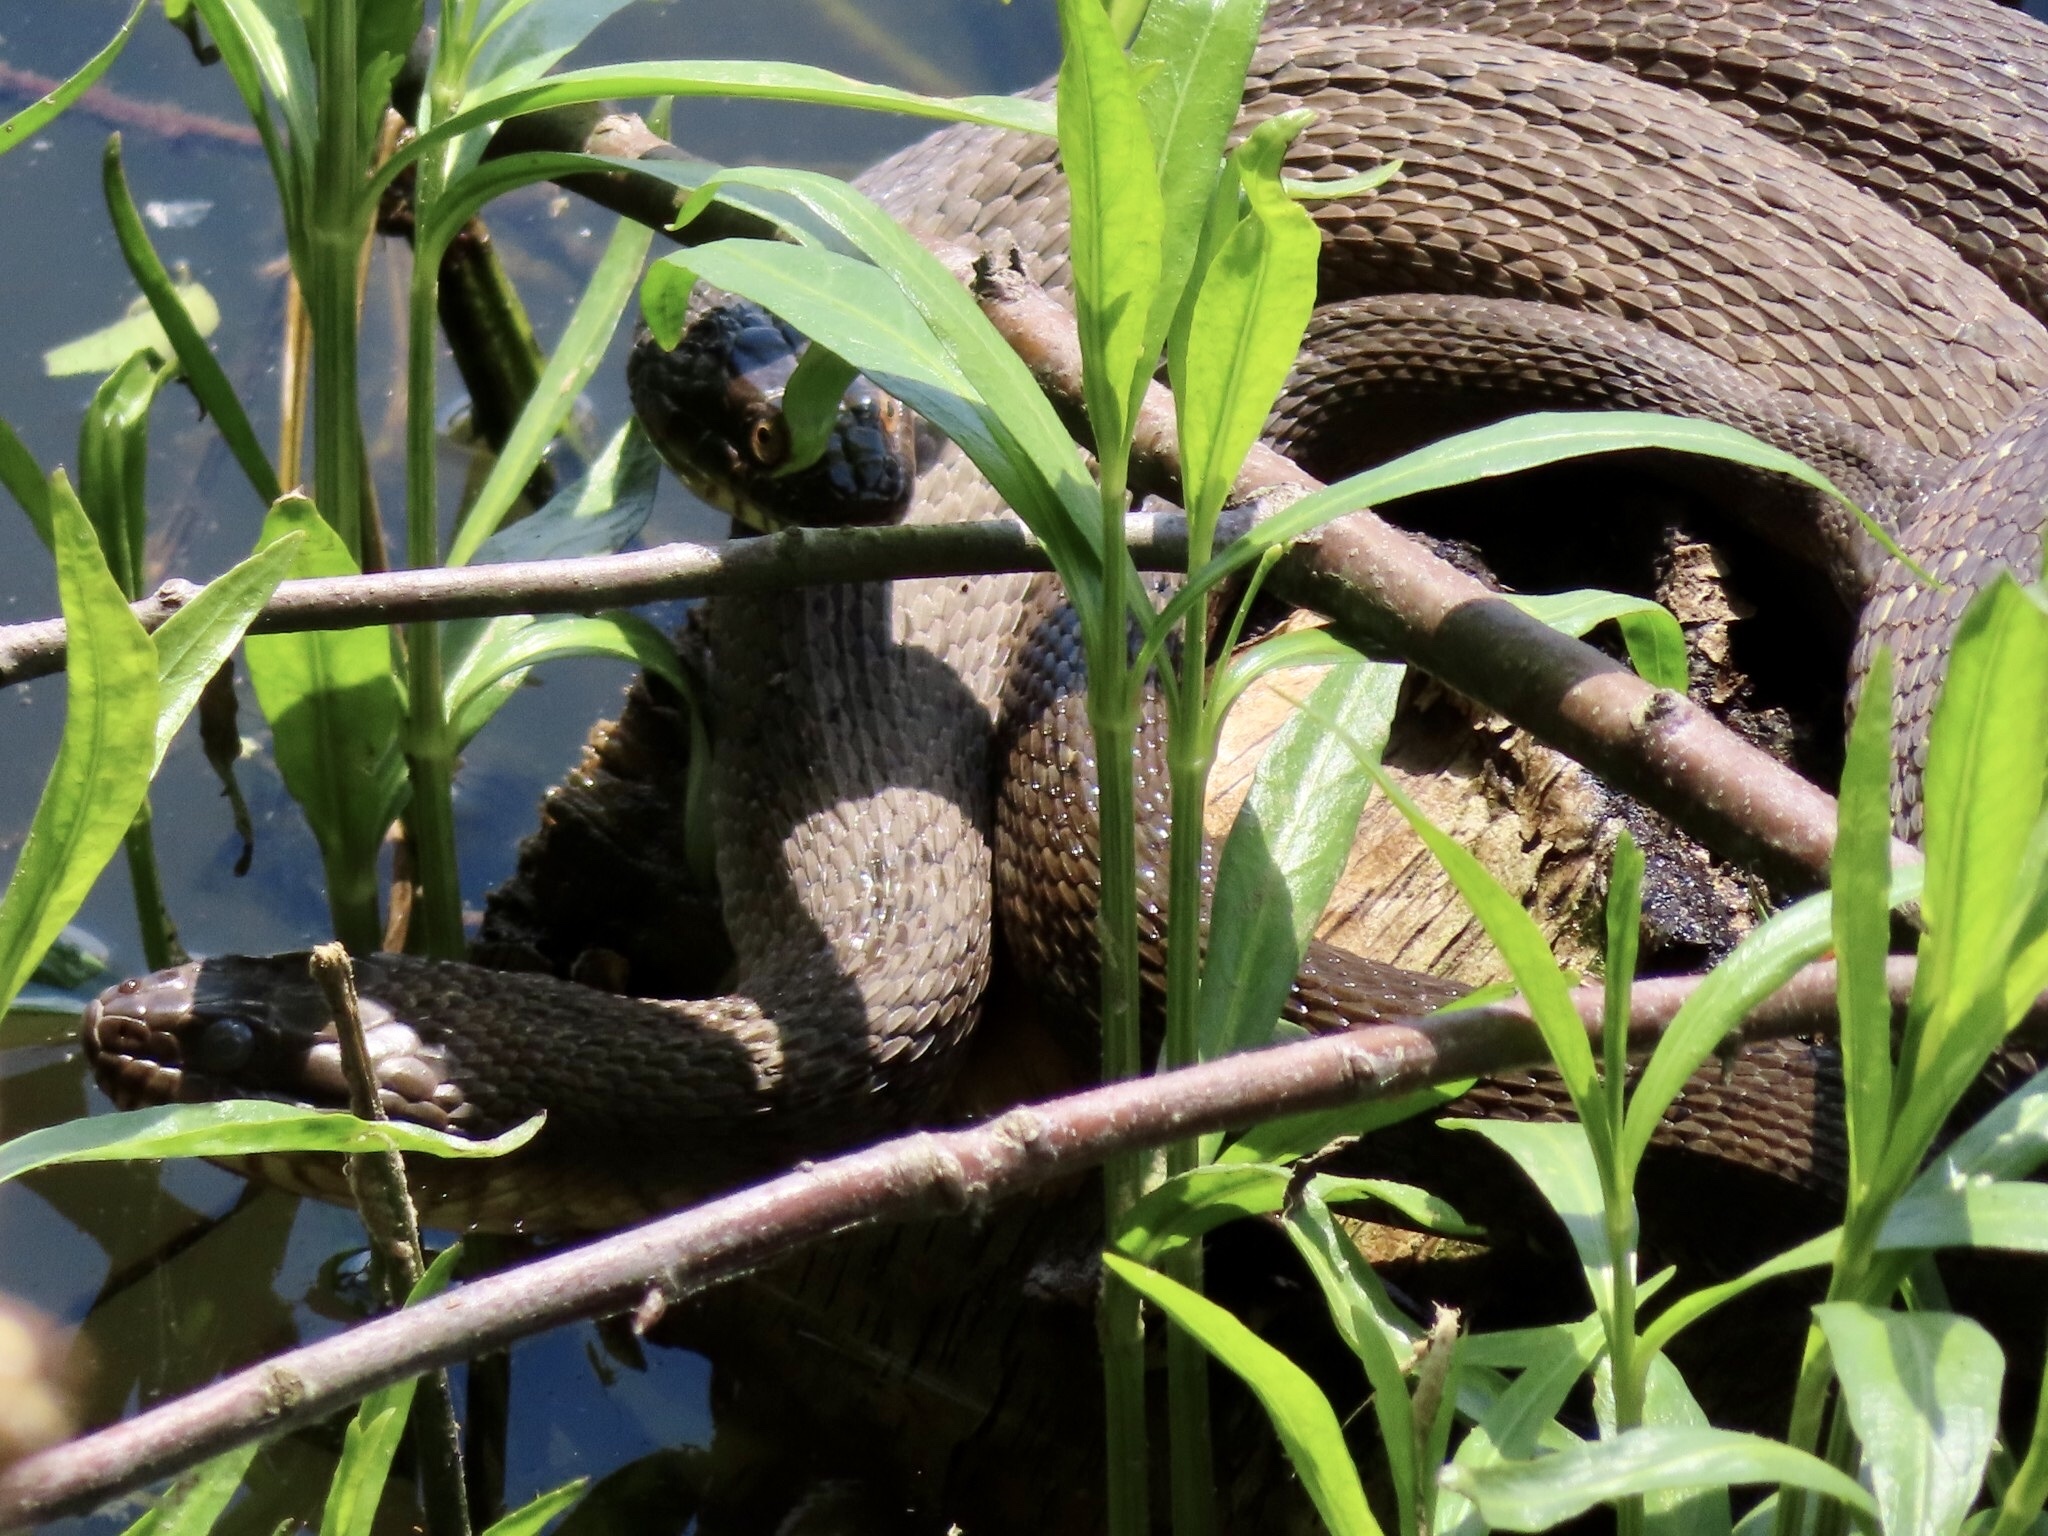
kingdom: Animalia
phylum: Chordata
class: Squamata
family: Colubridae
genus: Nerodia
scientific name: Nerodia sipedon
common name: Northern water snake
